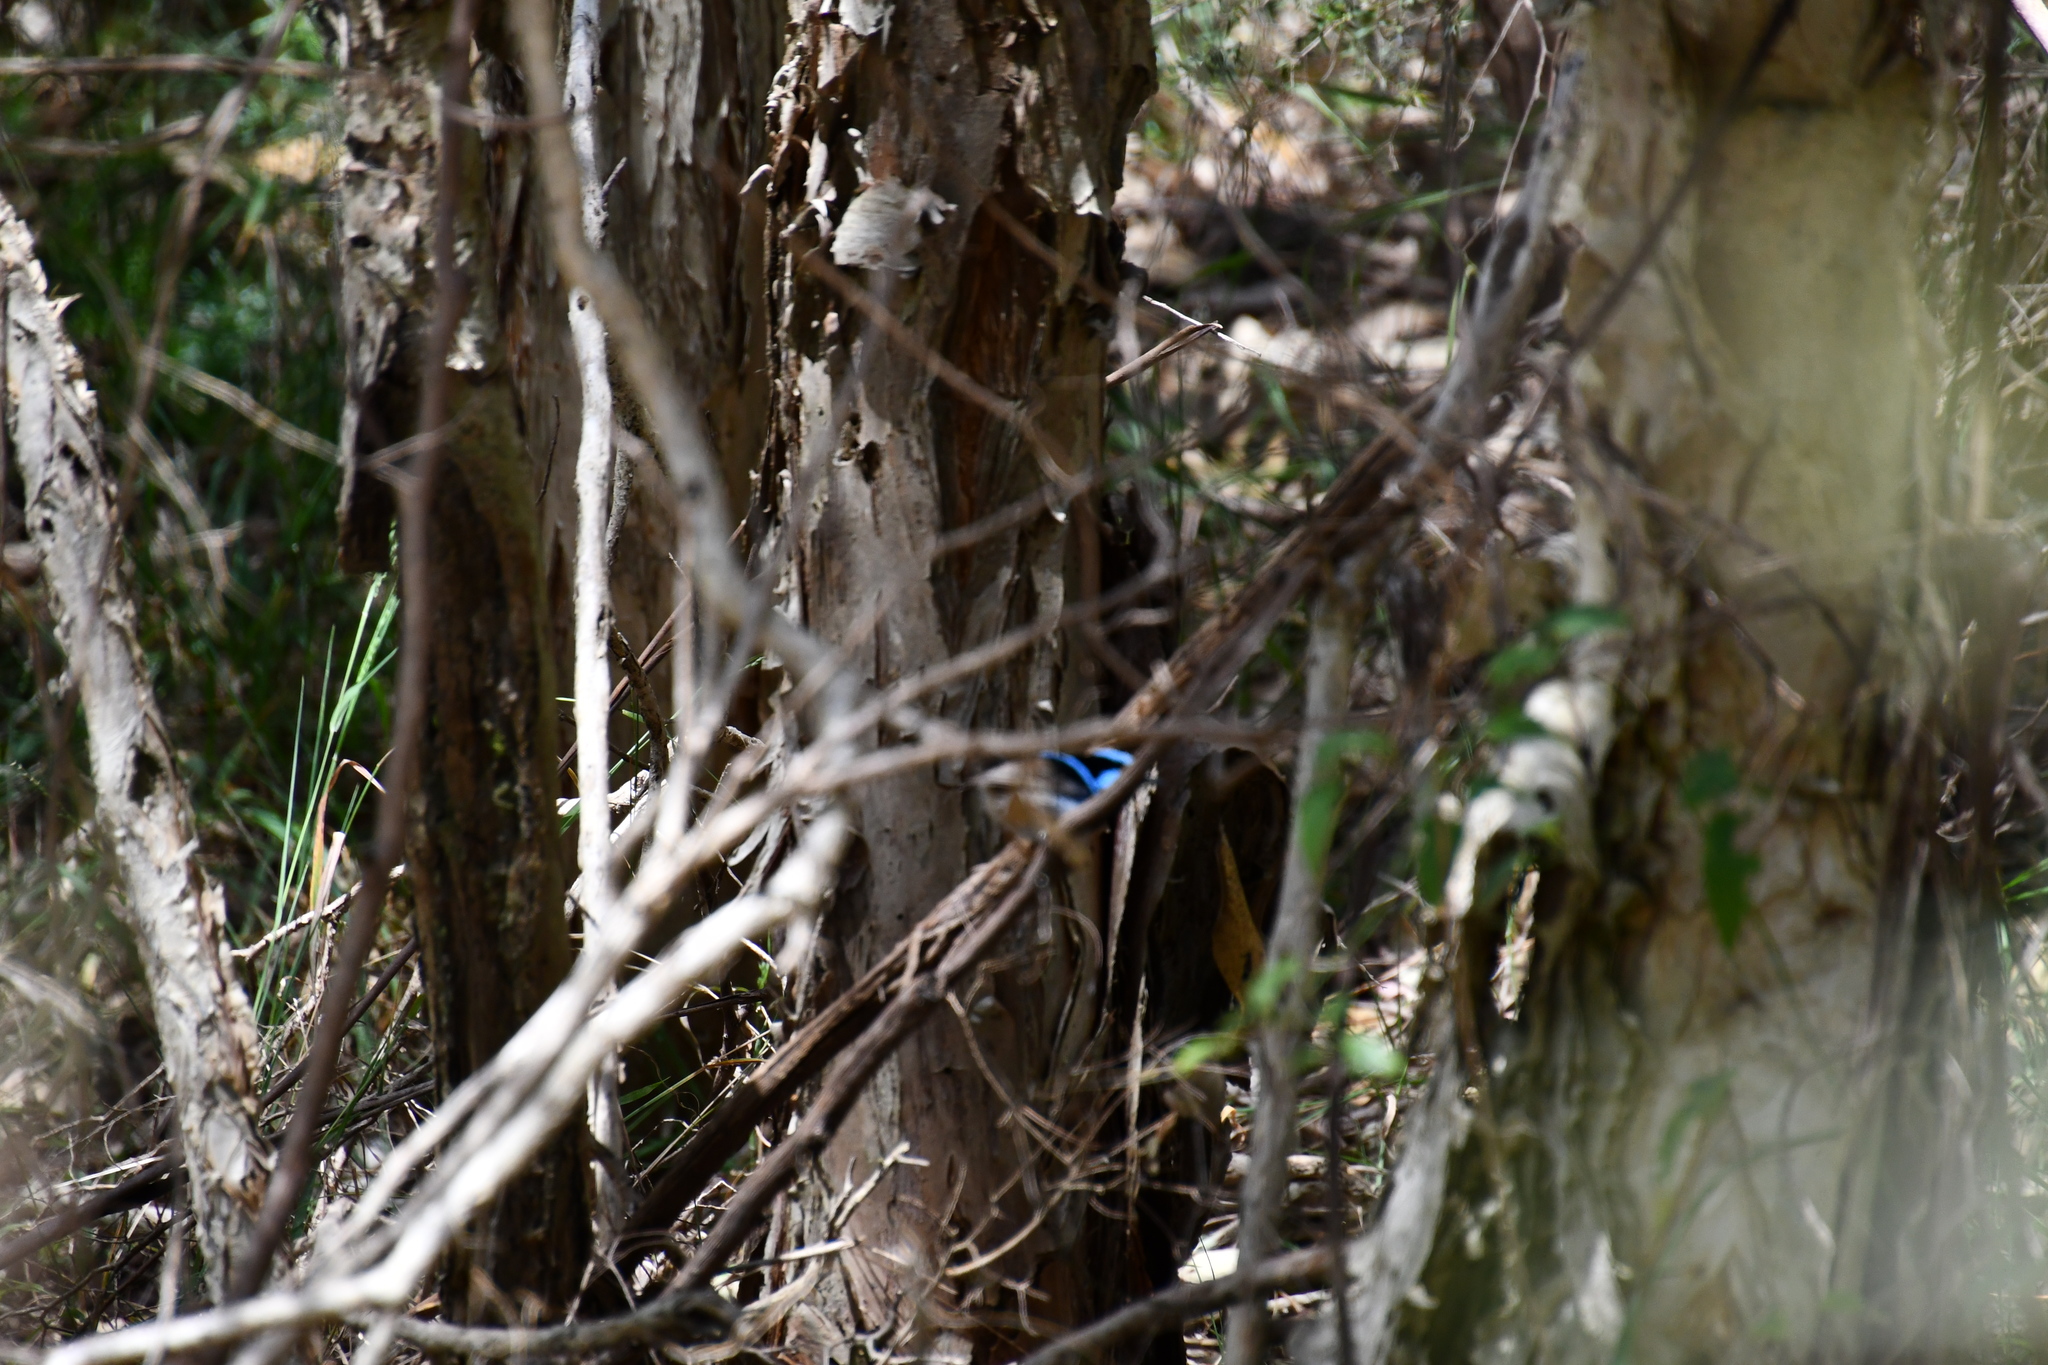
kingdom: Animalia
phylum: Chordata
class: Aves
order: Passeriformes
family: Maluridae
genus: Malurus
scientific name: Malurus cyaneus
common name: Superb fairywren
